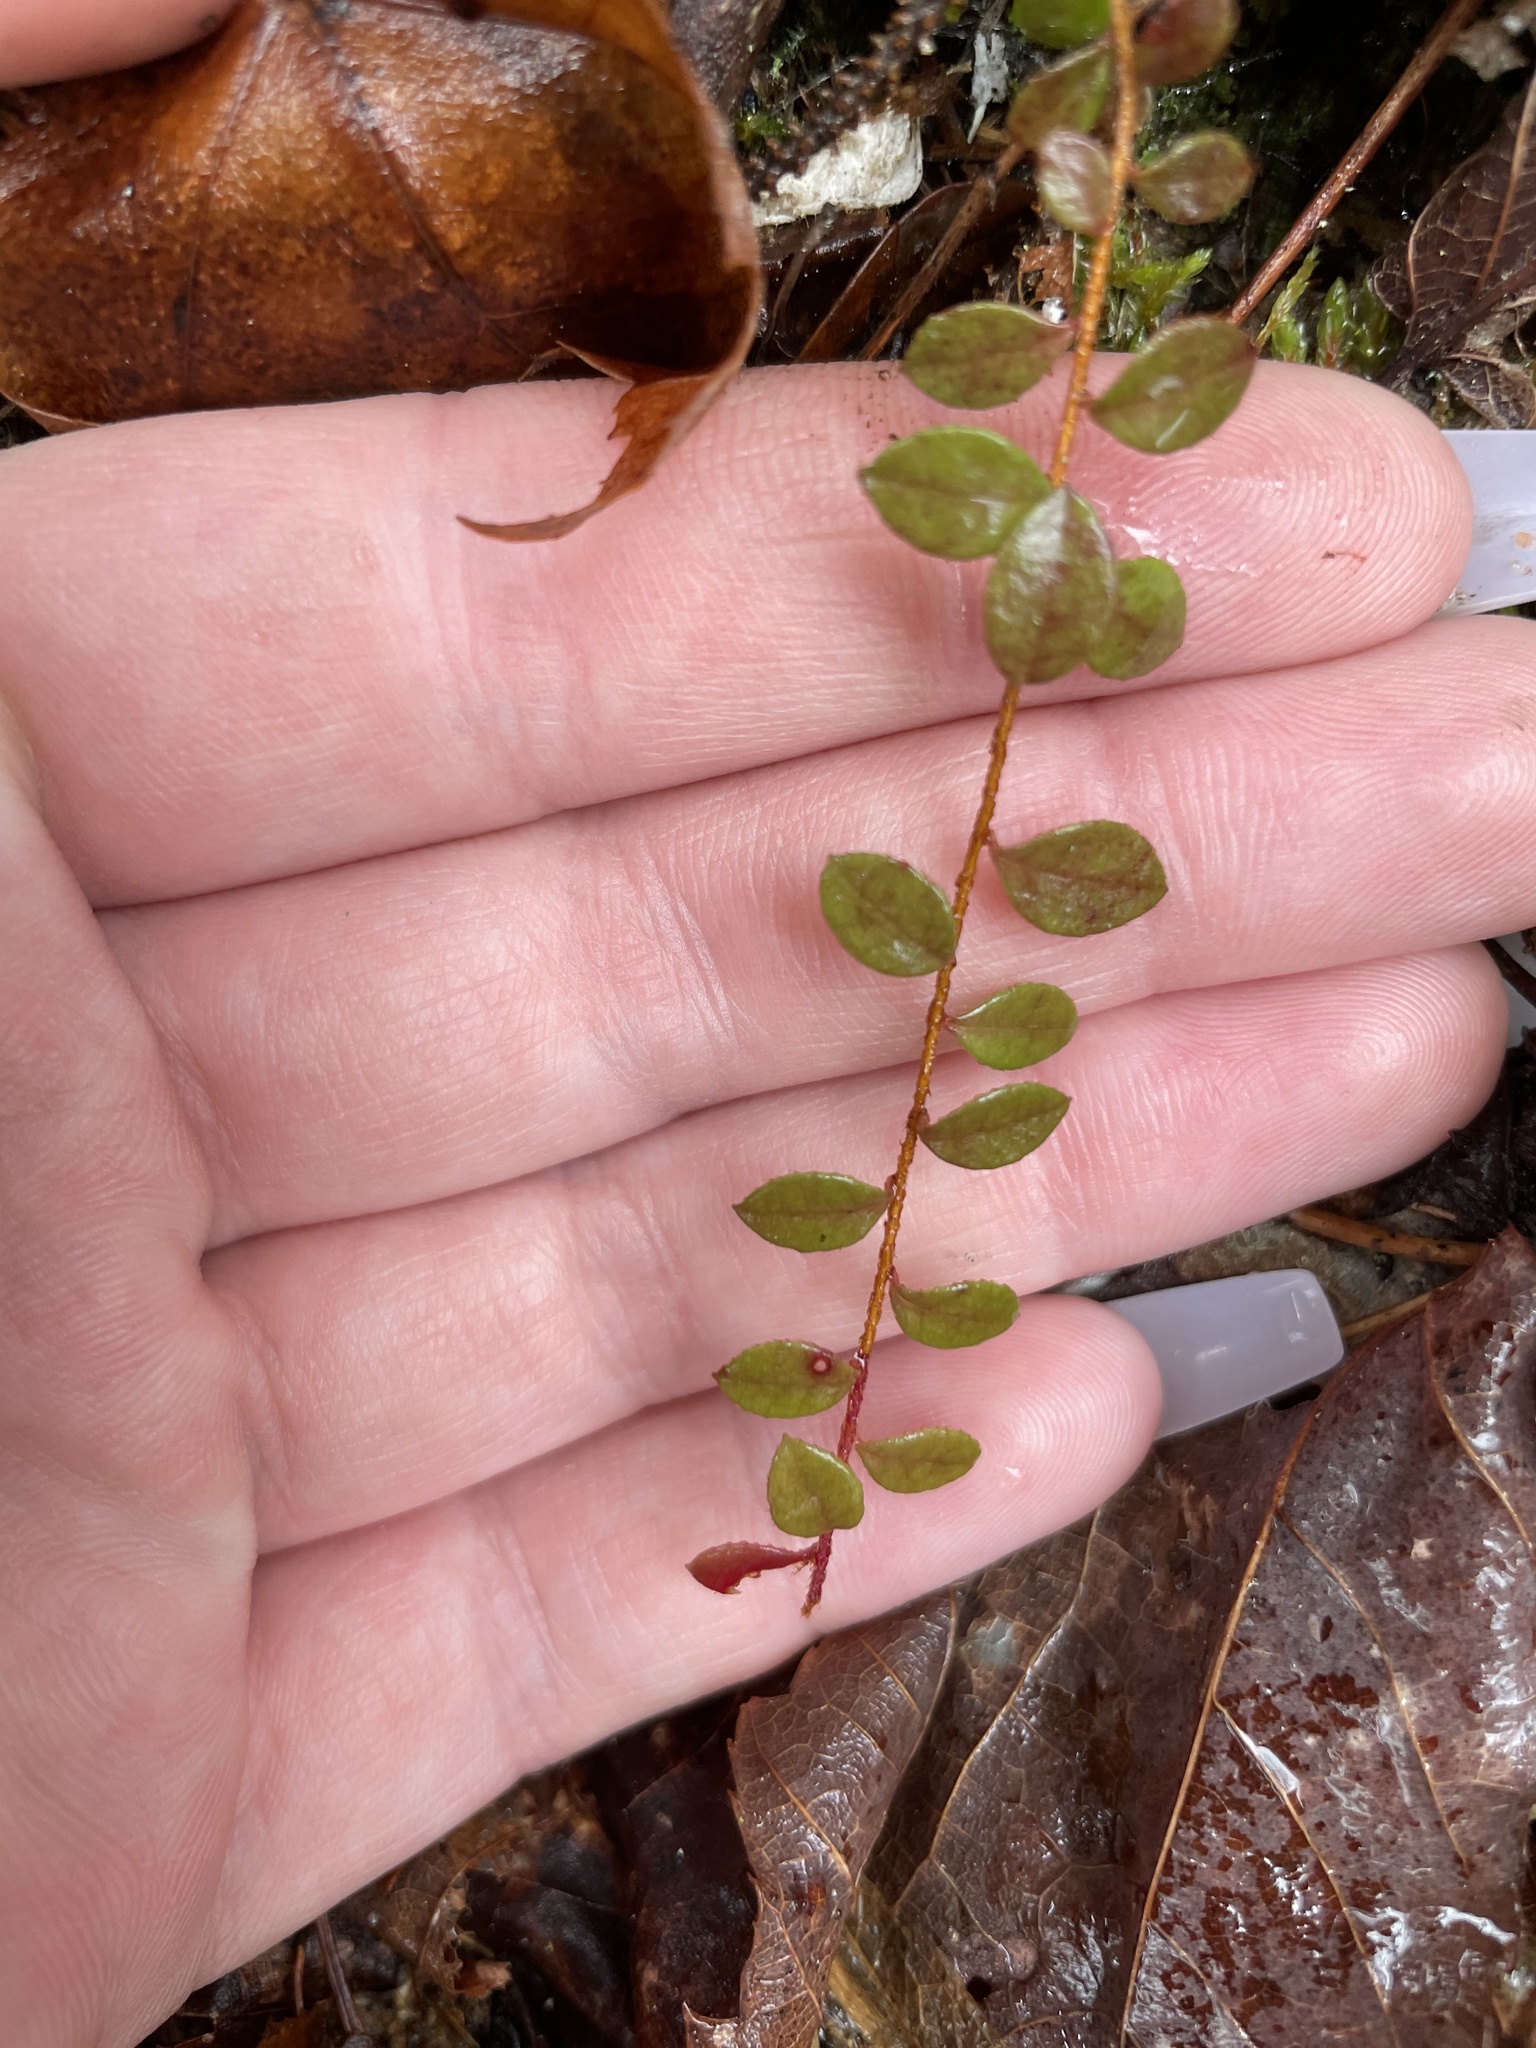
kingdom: Plantae
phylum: Tracheophyta
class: Magnoliopsida
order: Ericales
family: Ericaceae
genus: Gaultheria
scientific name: Gaultheria hispidula
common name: Cancer wintergreen
